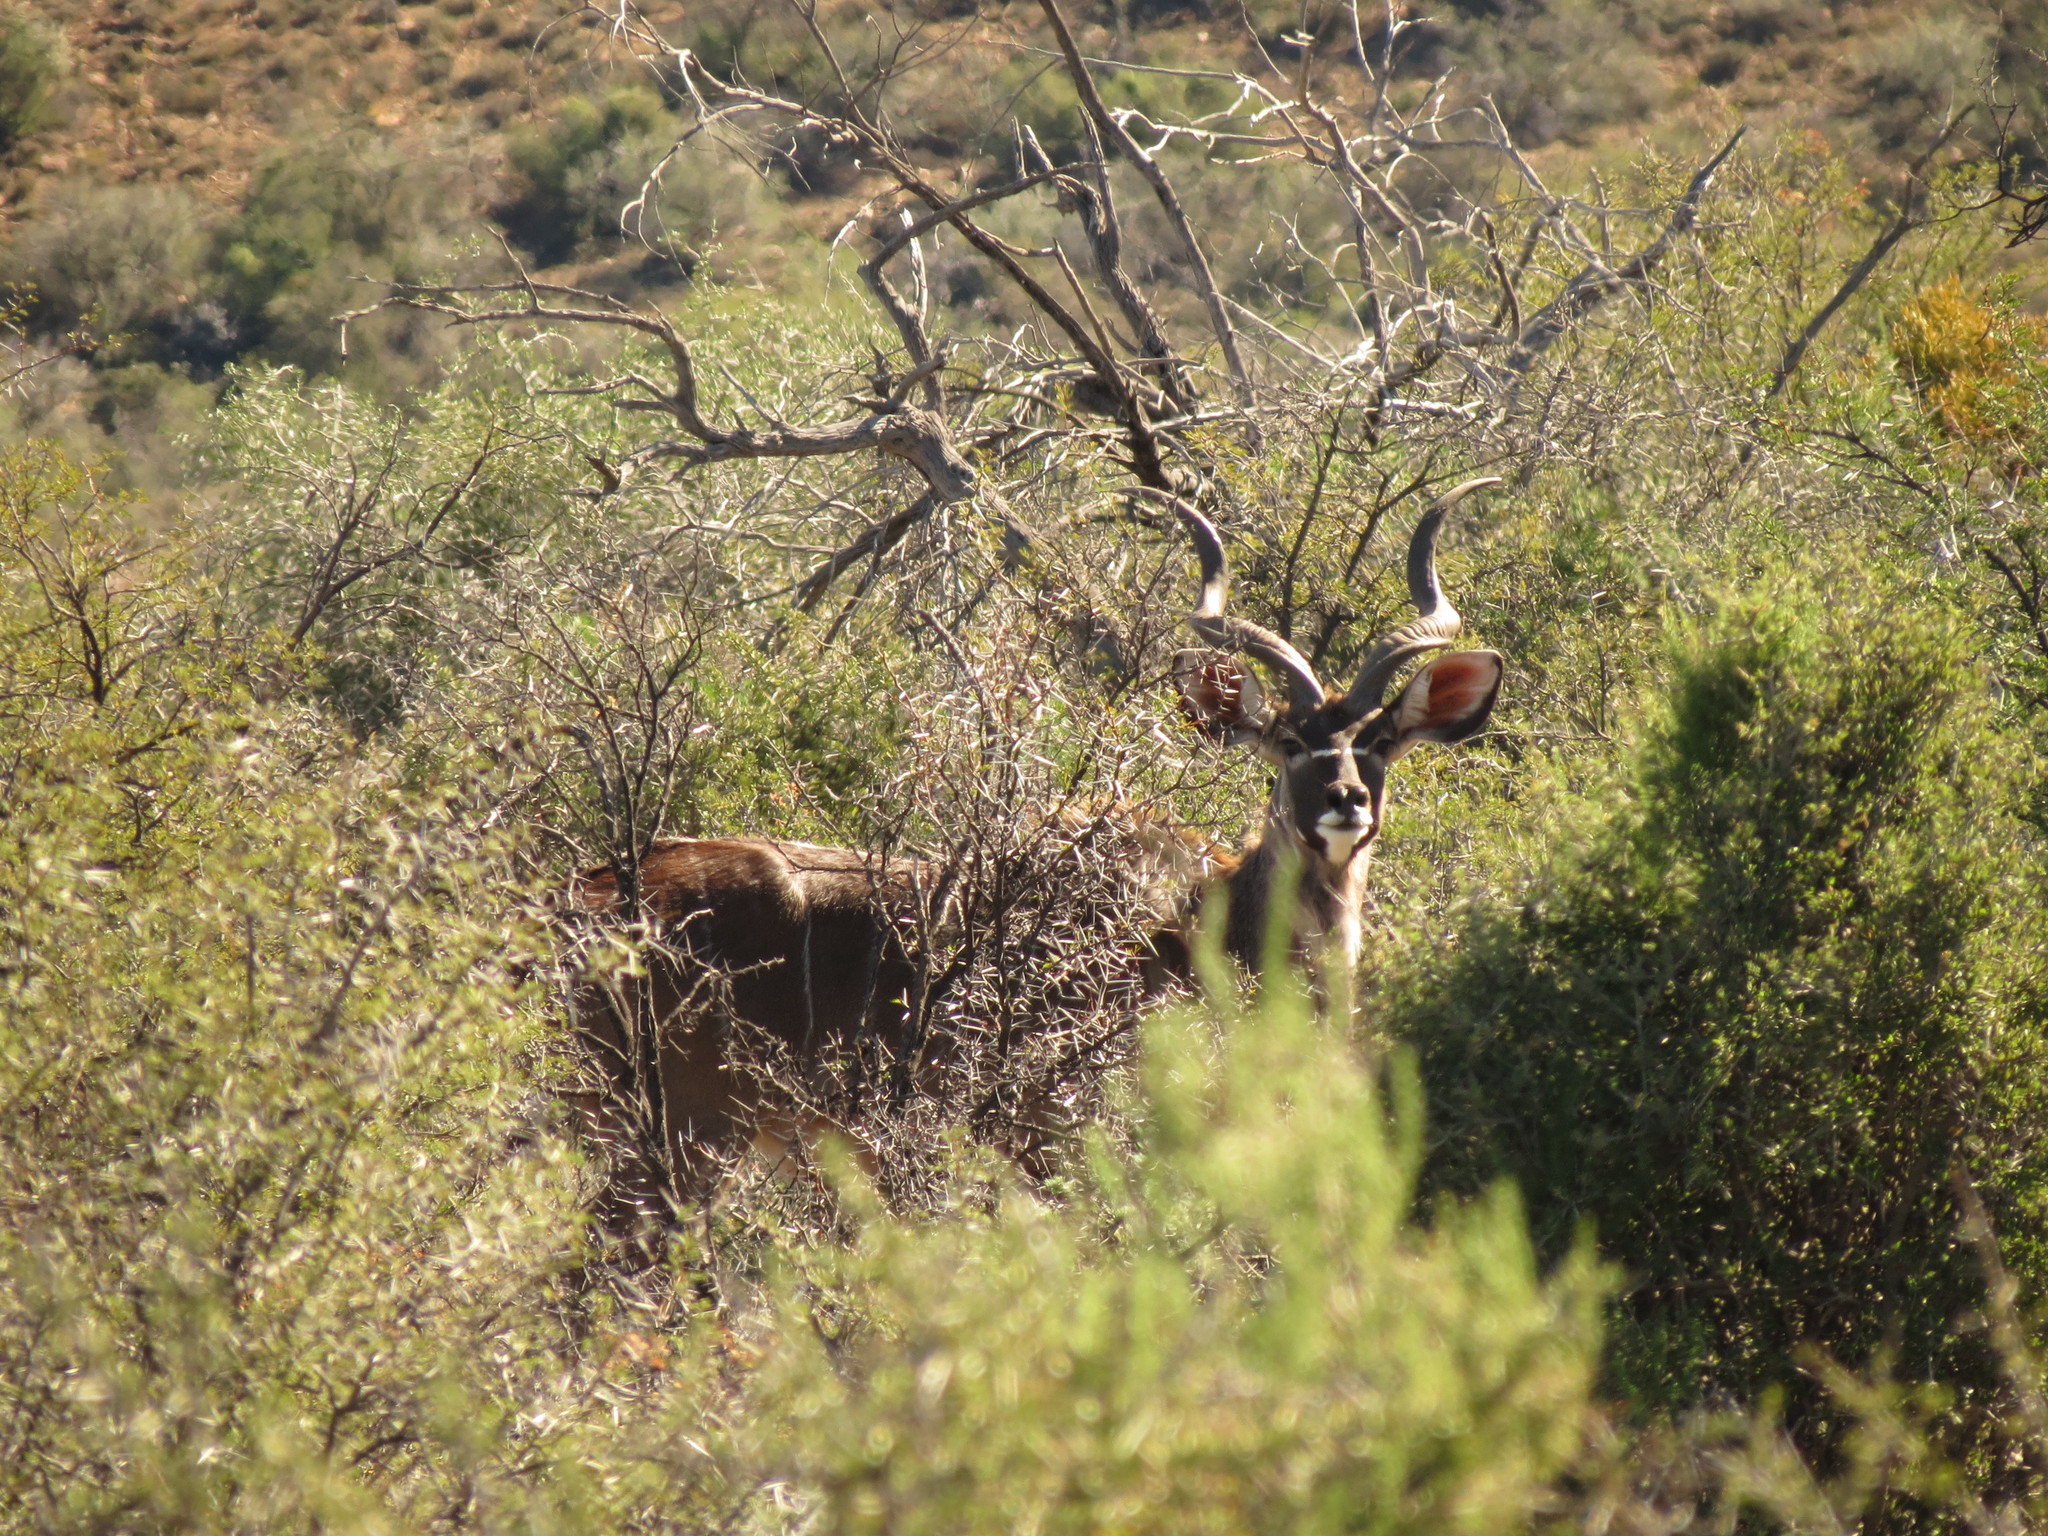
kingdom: Animalia
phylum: Chordata
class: Mammalia
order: Artiodactyla
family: Bovidae
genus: Tragelaphus
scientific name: Tragelaphus strepsiceros
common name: Greater kudu
